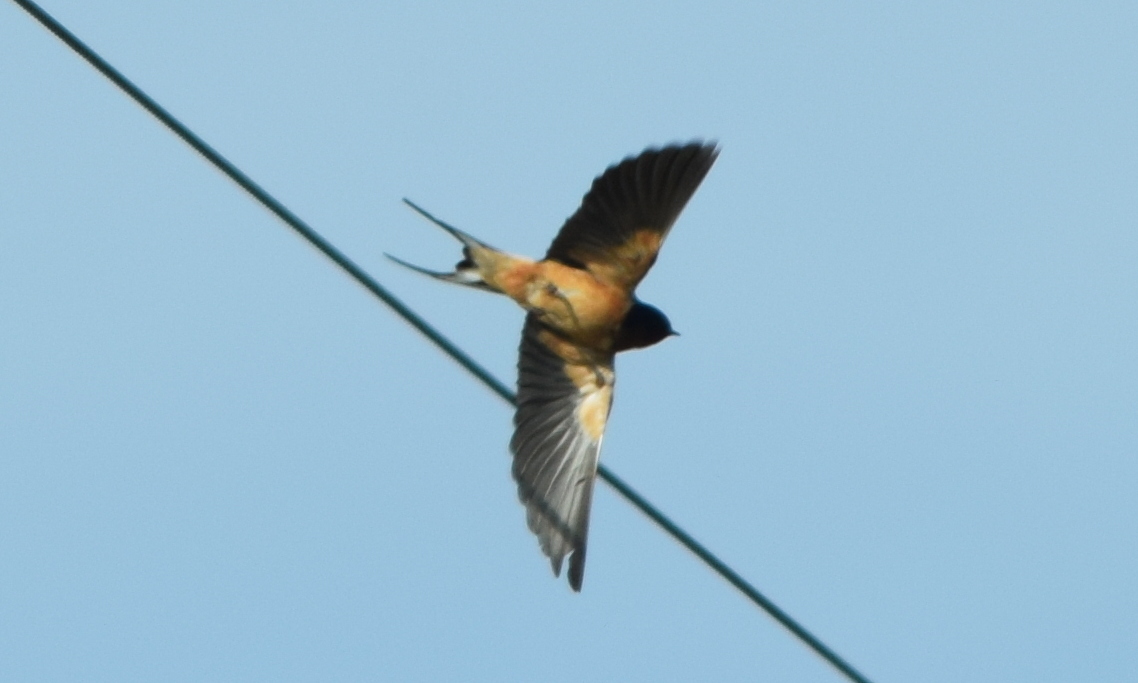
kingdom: Animalia
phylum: Chordata
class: Aves
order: Passeriformes
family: Hirundinidae
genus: Hirundo
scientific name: Hirundo rustica
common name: Barn swallow
